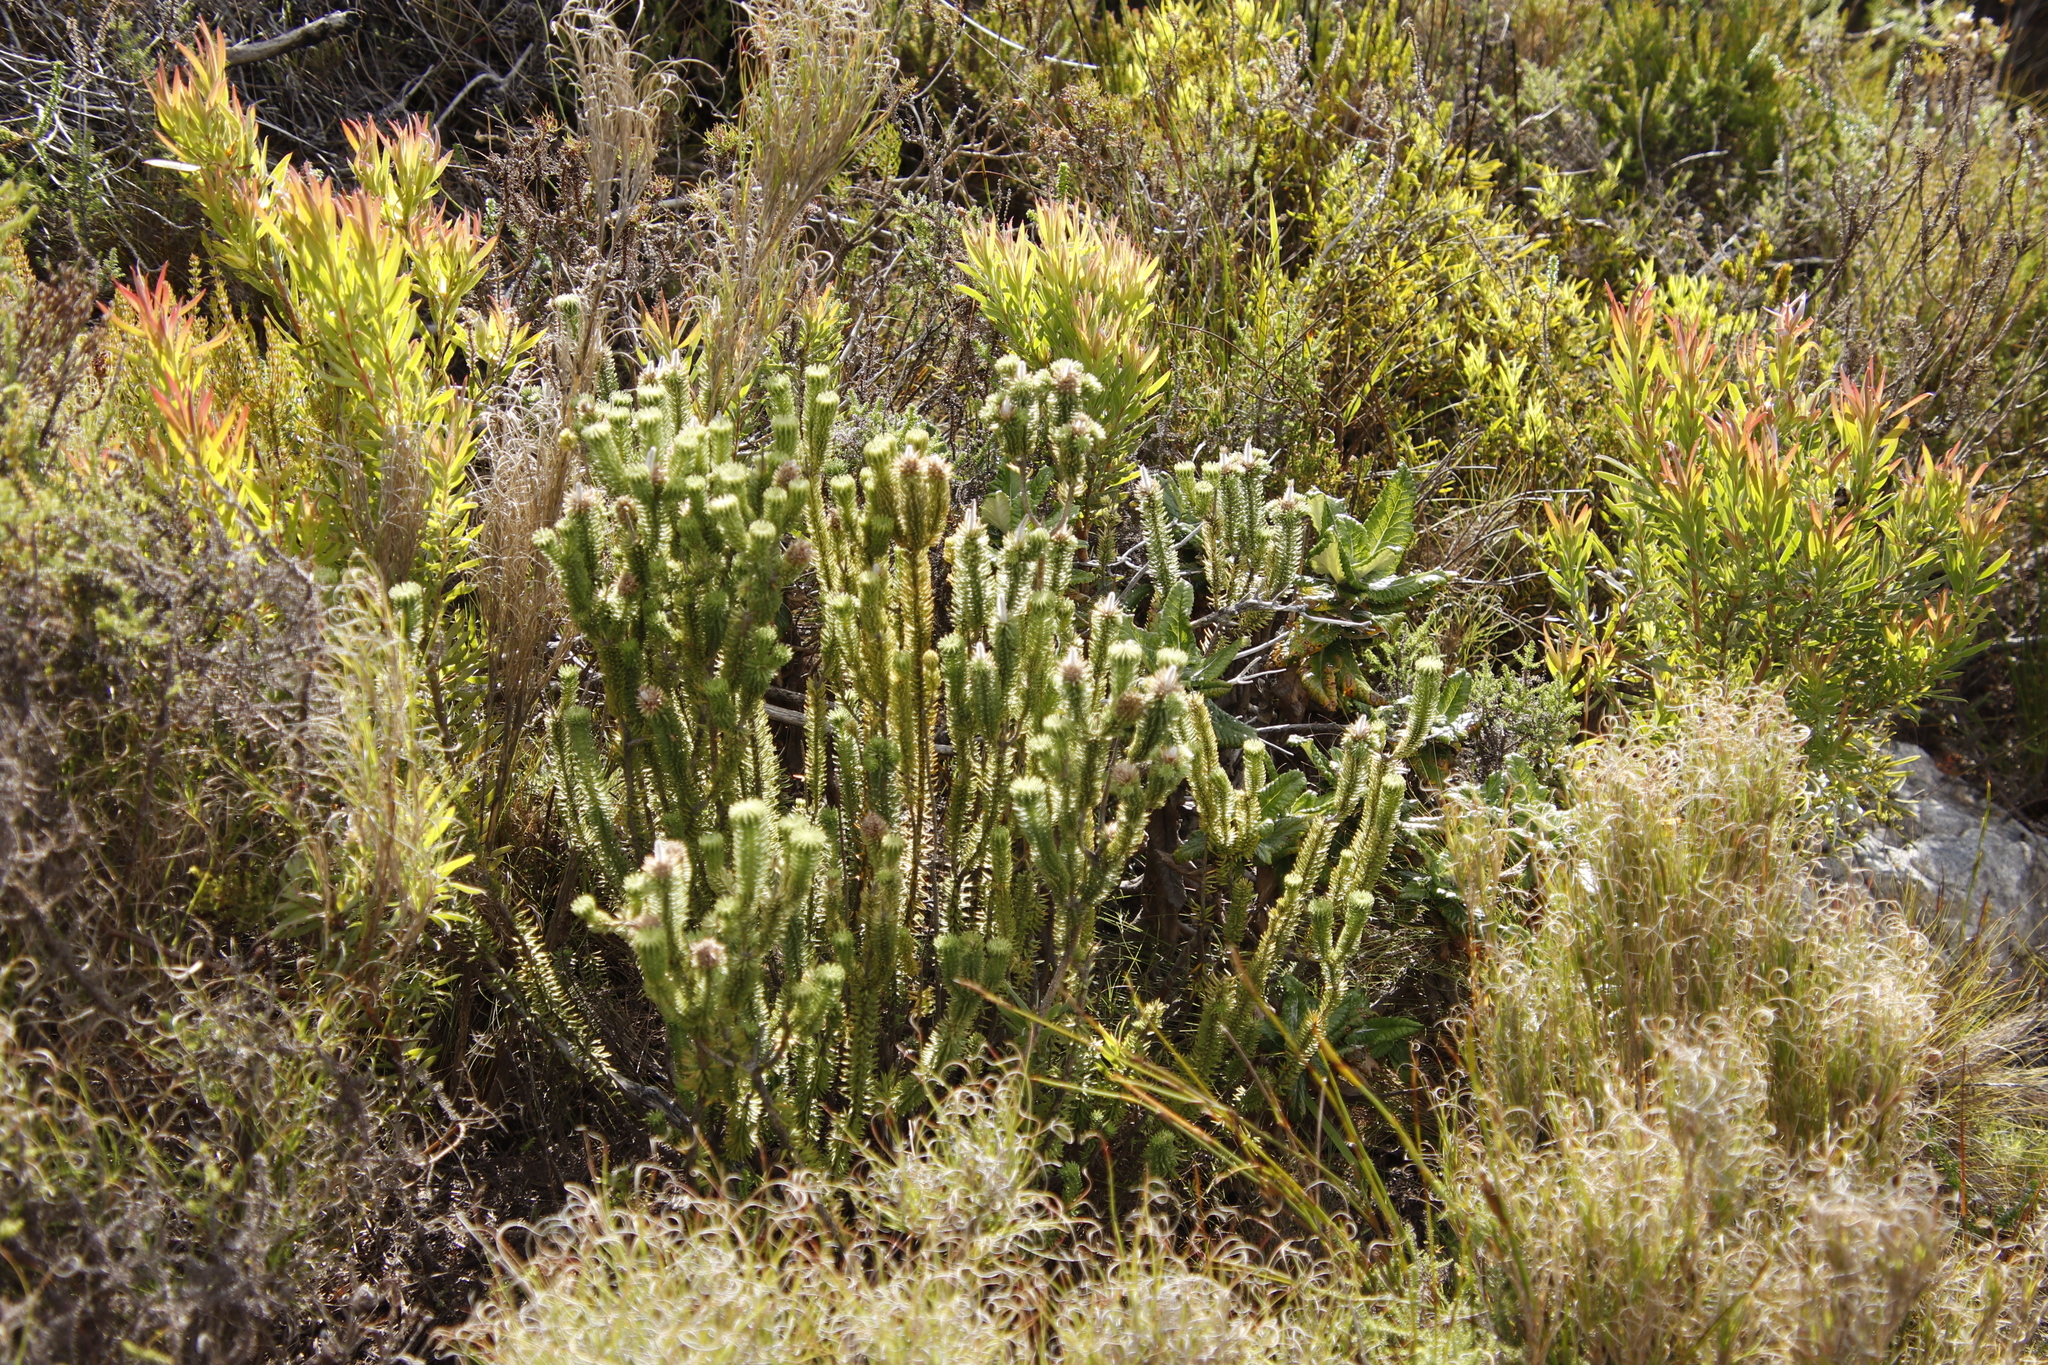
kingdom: Plantae
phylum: Tracheophyta
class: Magnoliopsida
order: Lamiales
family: Stilbaceae
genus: Stilbe
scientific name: Stilbe vestita
